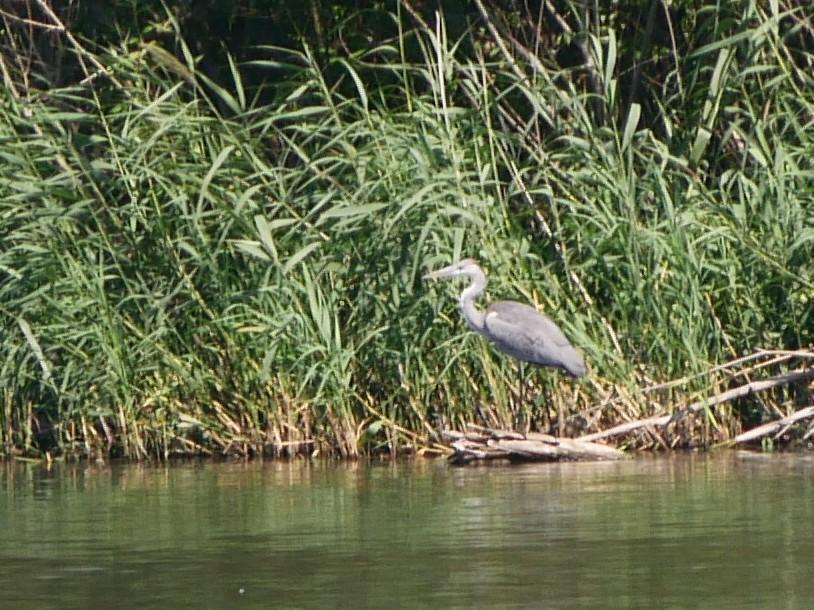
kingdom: Animalia
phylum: Chordata
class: Aves
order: Pelecaniformes
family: Ardeidae
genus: Ardea
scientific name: Ardea cinerea
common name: Grey heron
